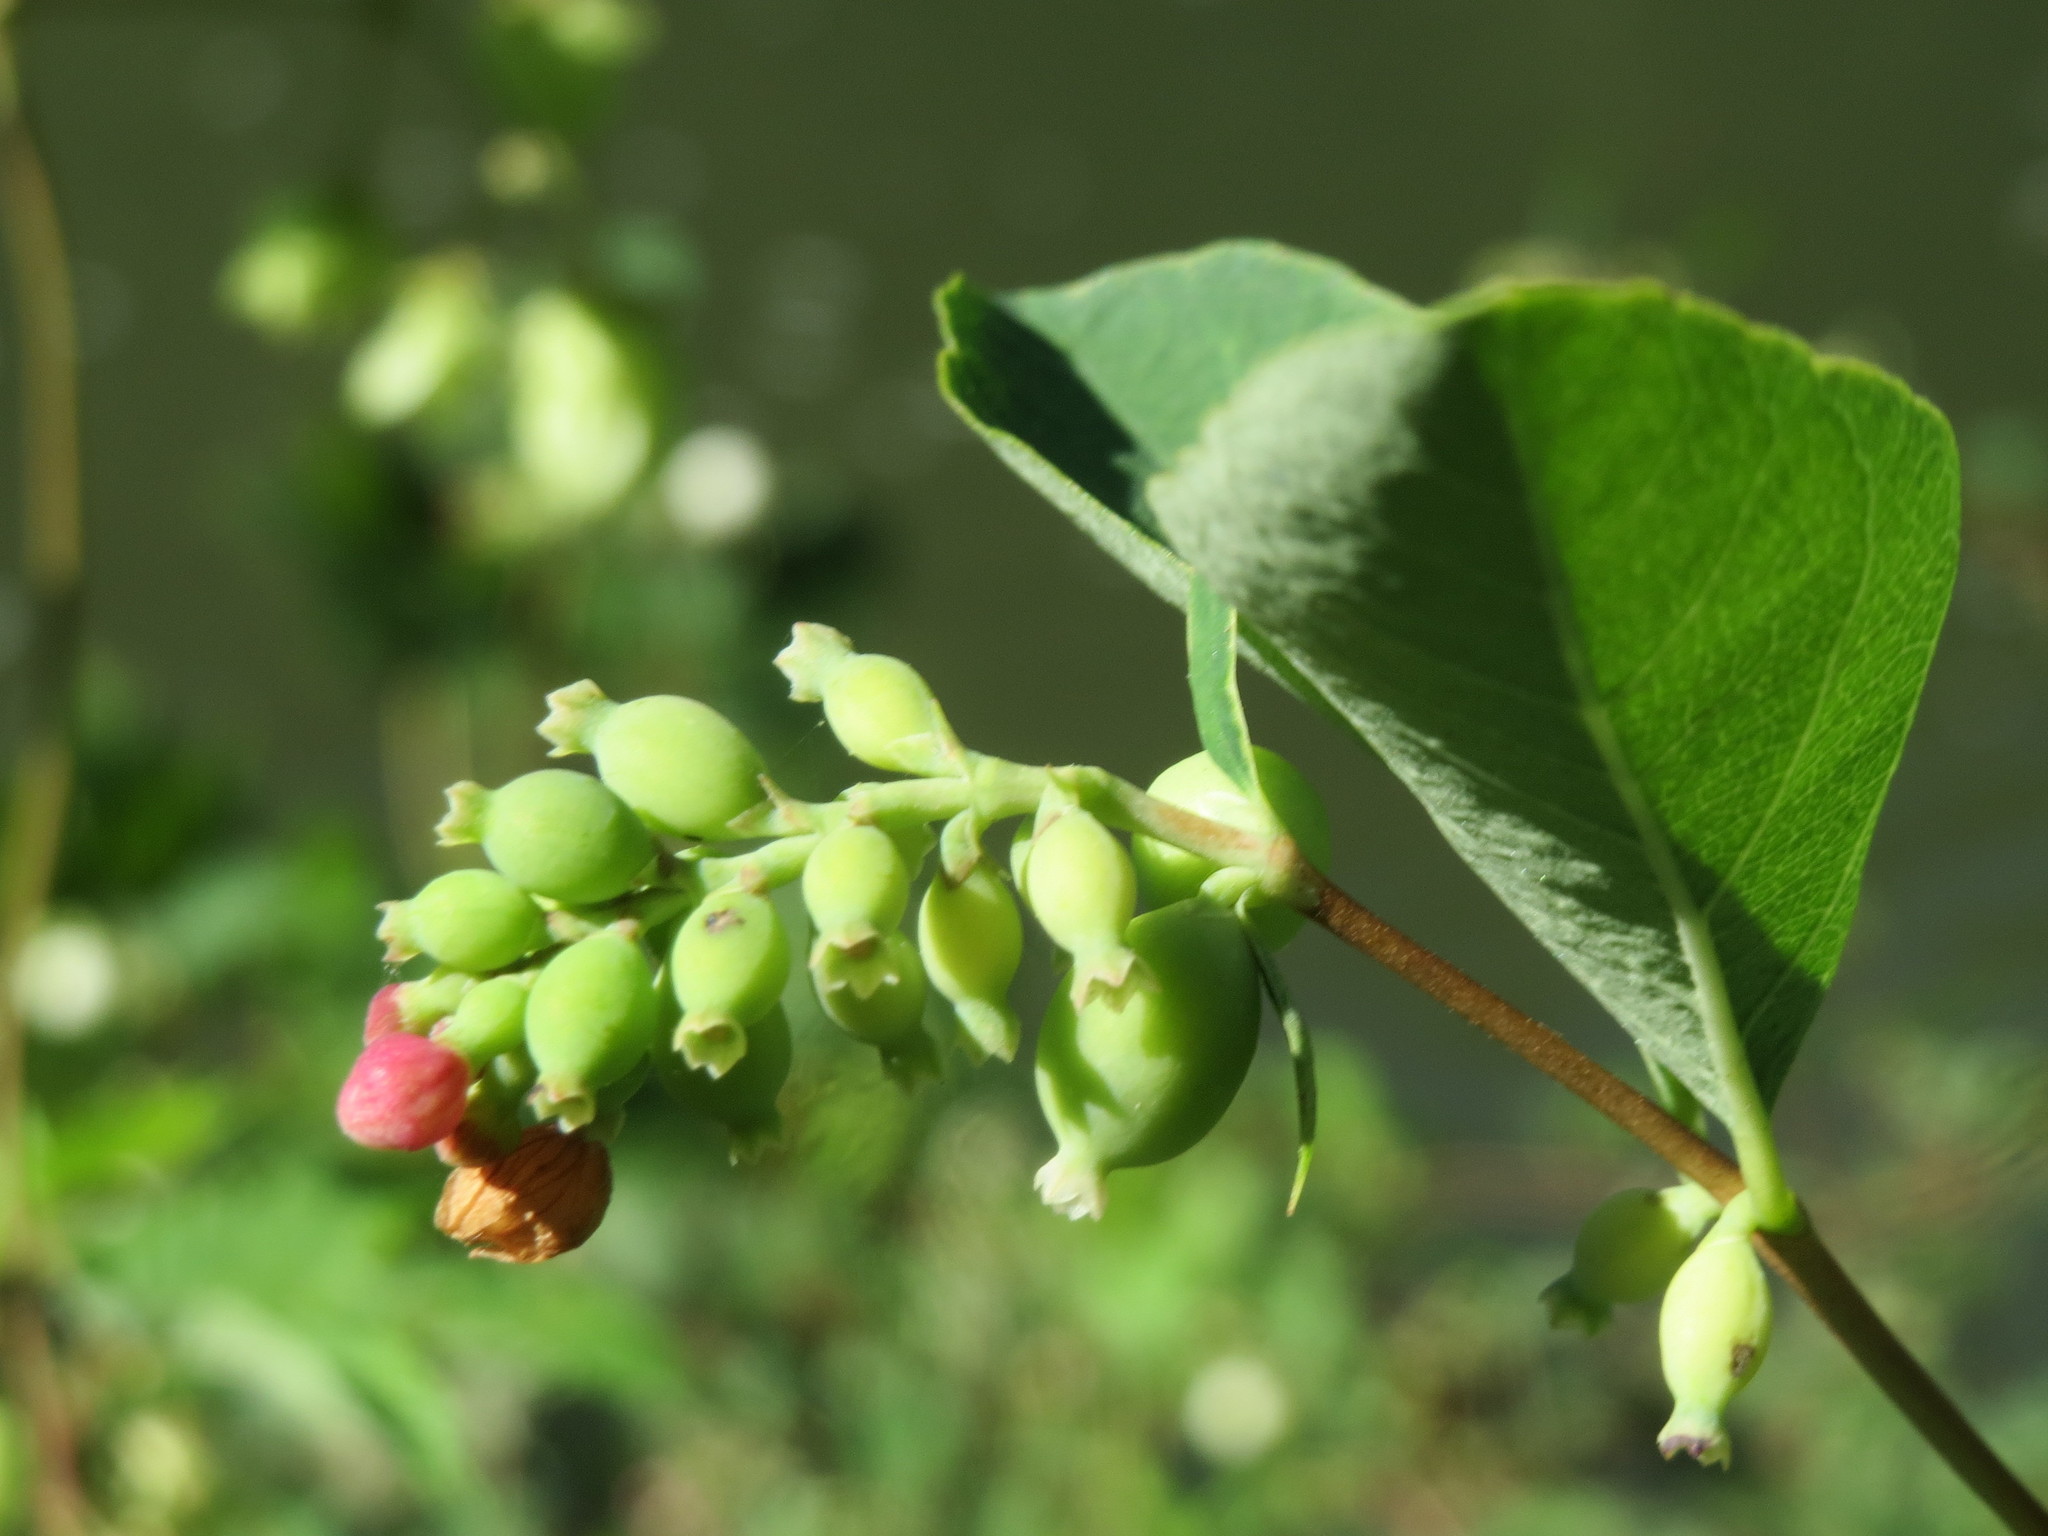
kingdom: Plantae
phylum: Tracheophyta
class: Magnoliopsida
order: Dipsacales
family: Caprifoliaceae
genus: Symphoricarpos
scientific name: Symphoricarpos albus
